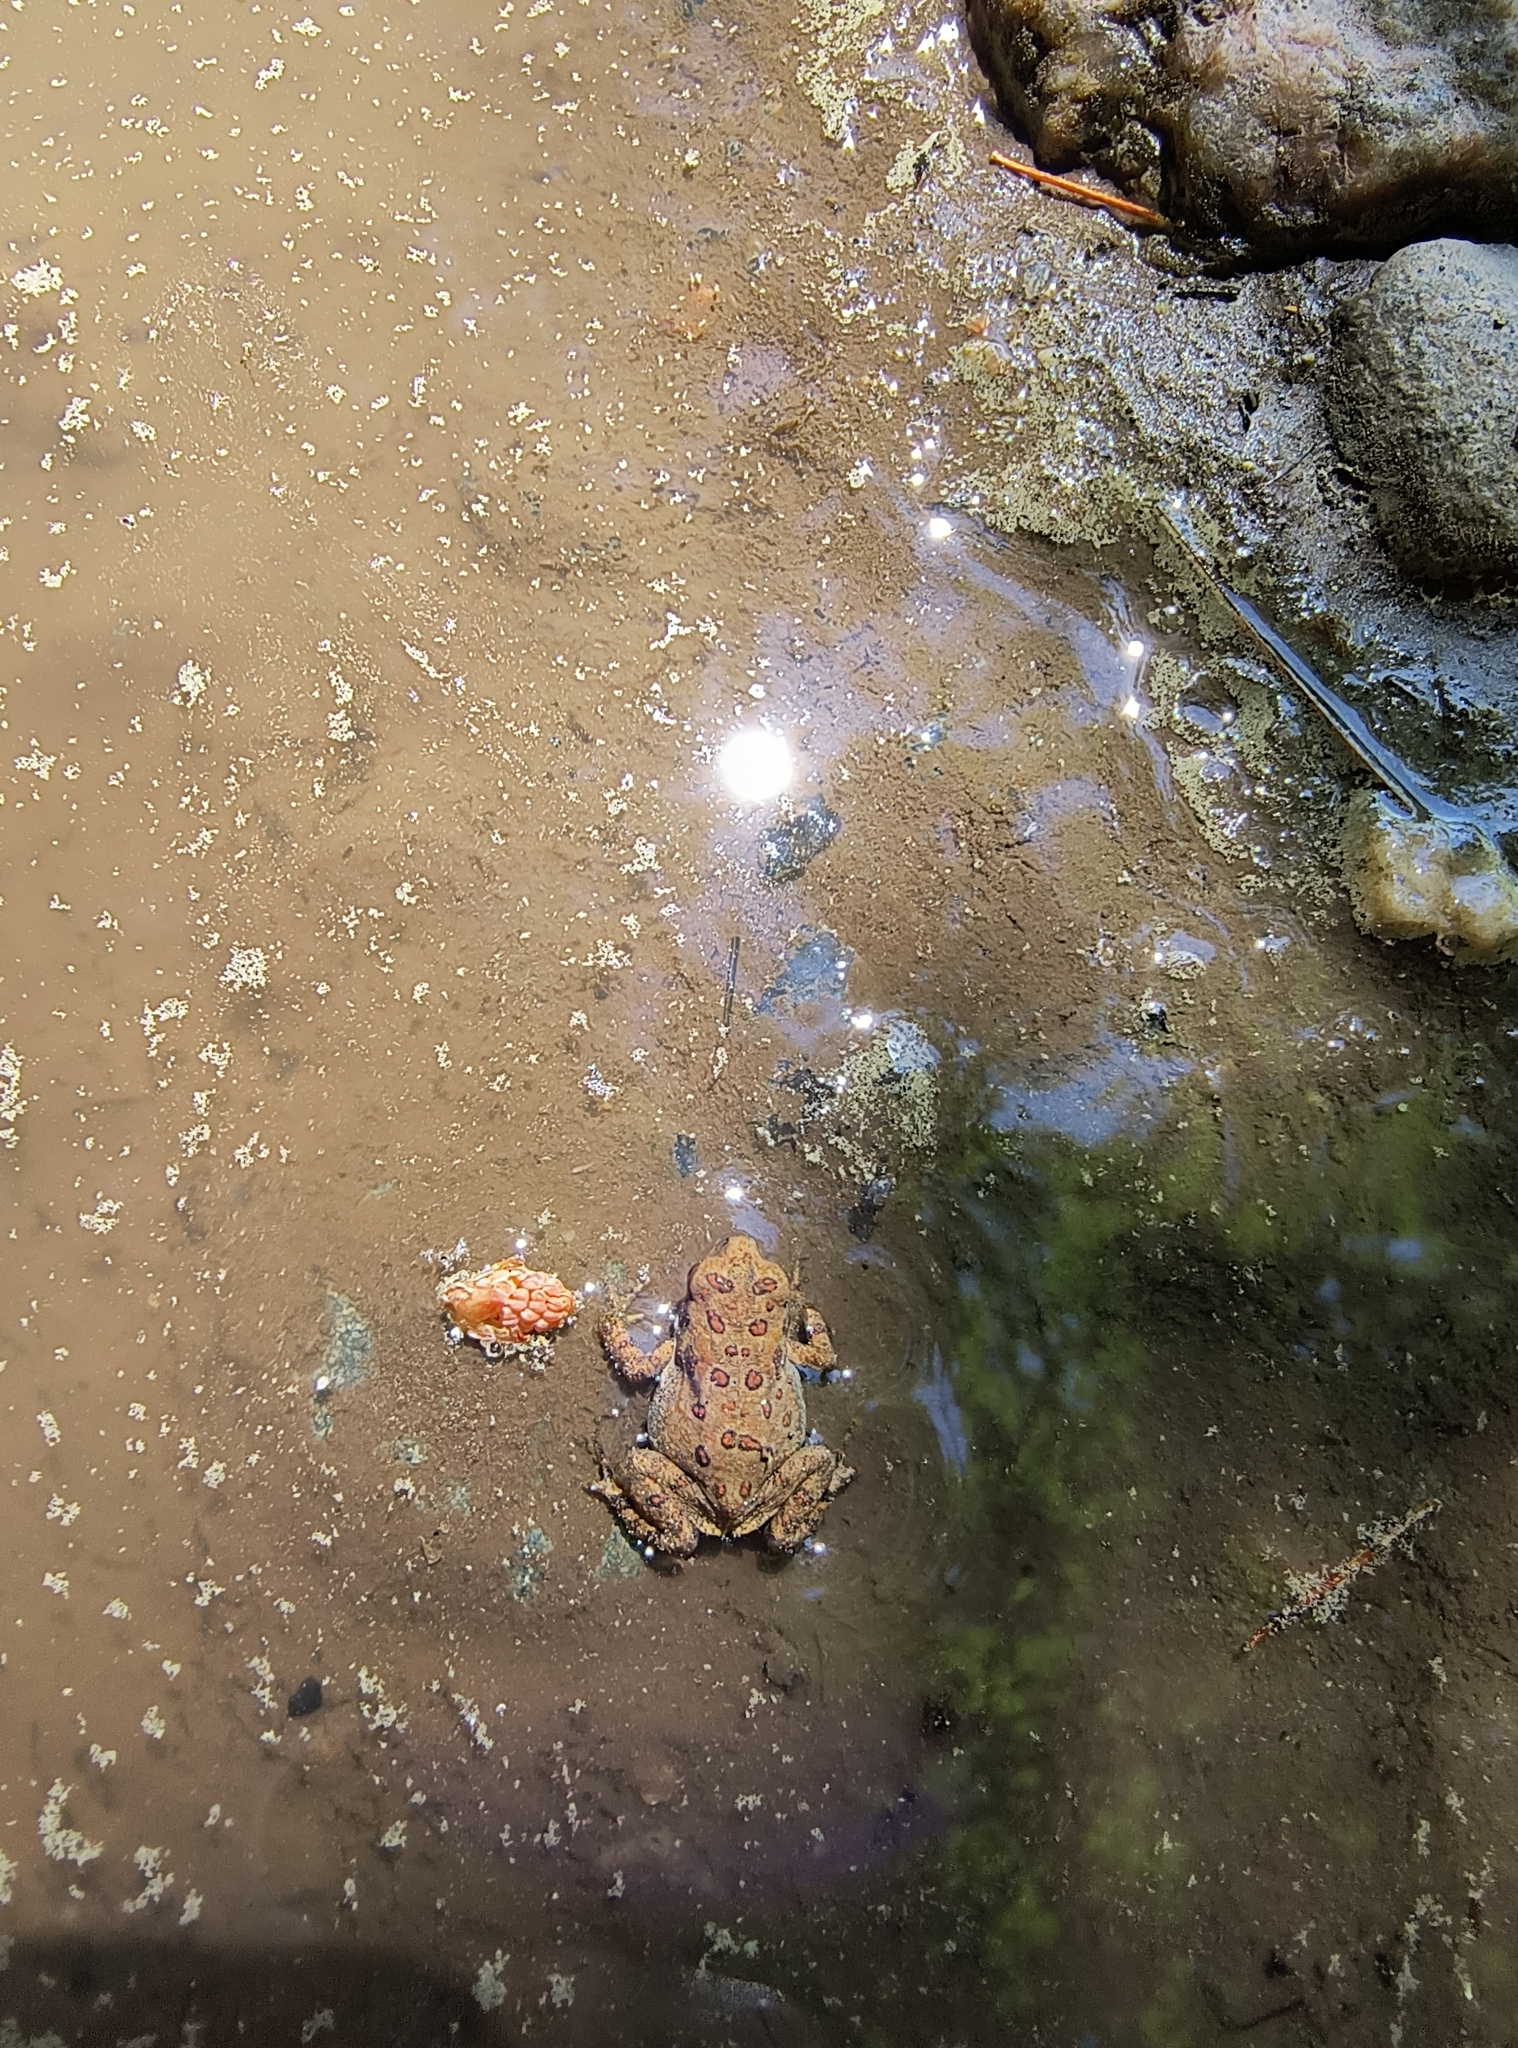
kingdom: Animalia
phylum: Chordata
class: Amphibia
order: Anura
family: Bufonidae
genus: Anaxyrus
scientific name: Anaxyrus americanus
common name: American toad
